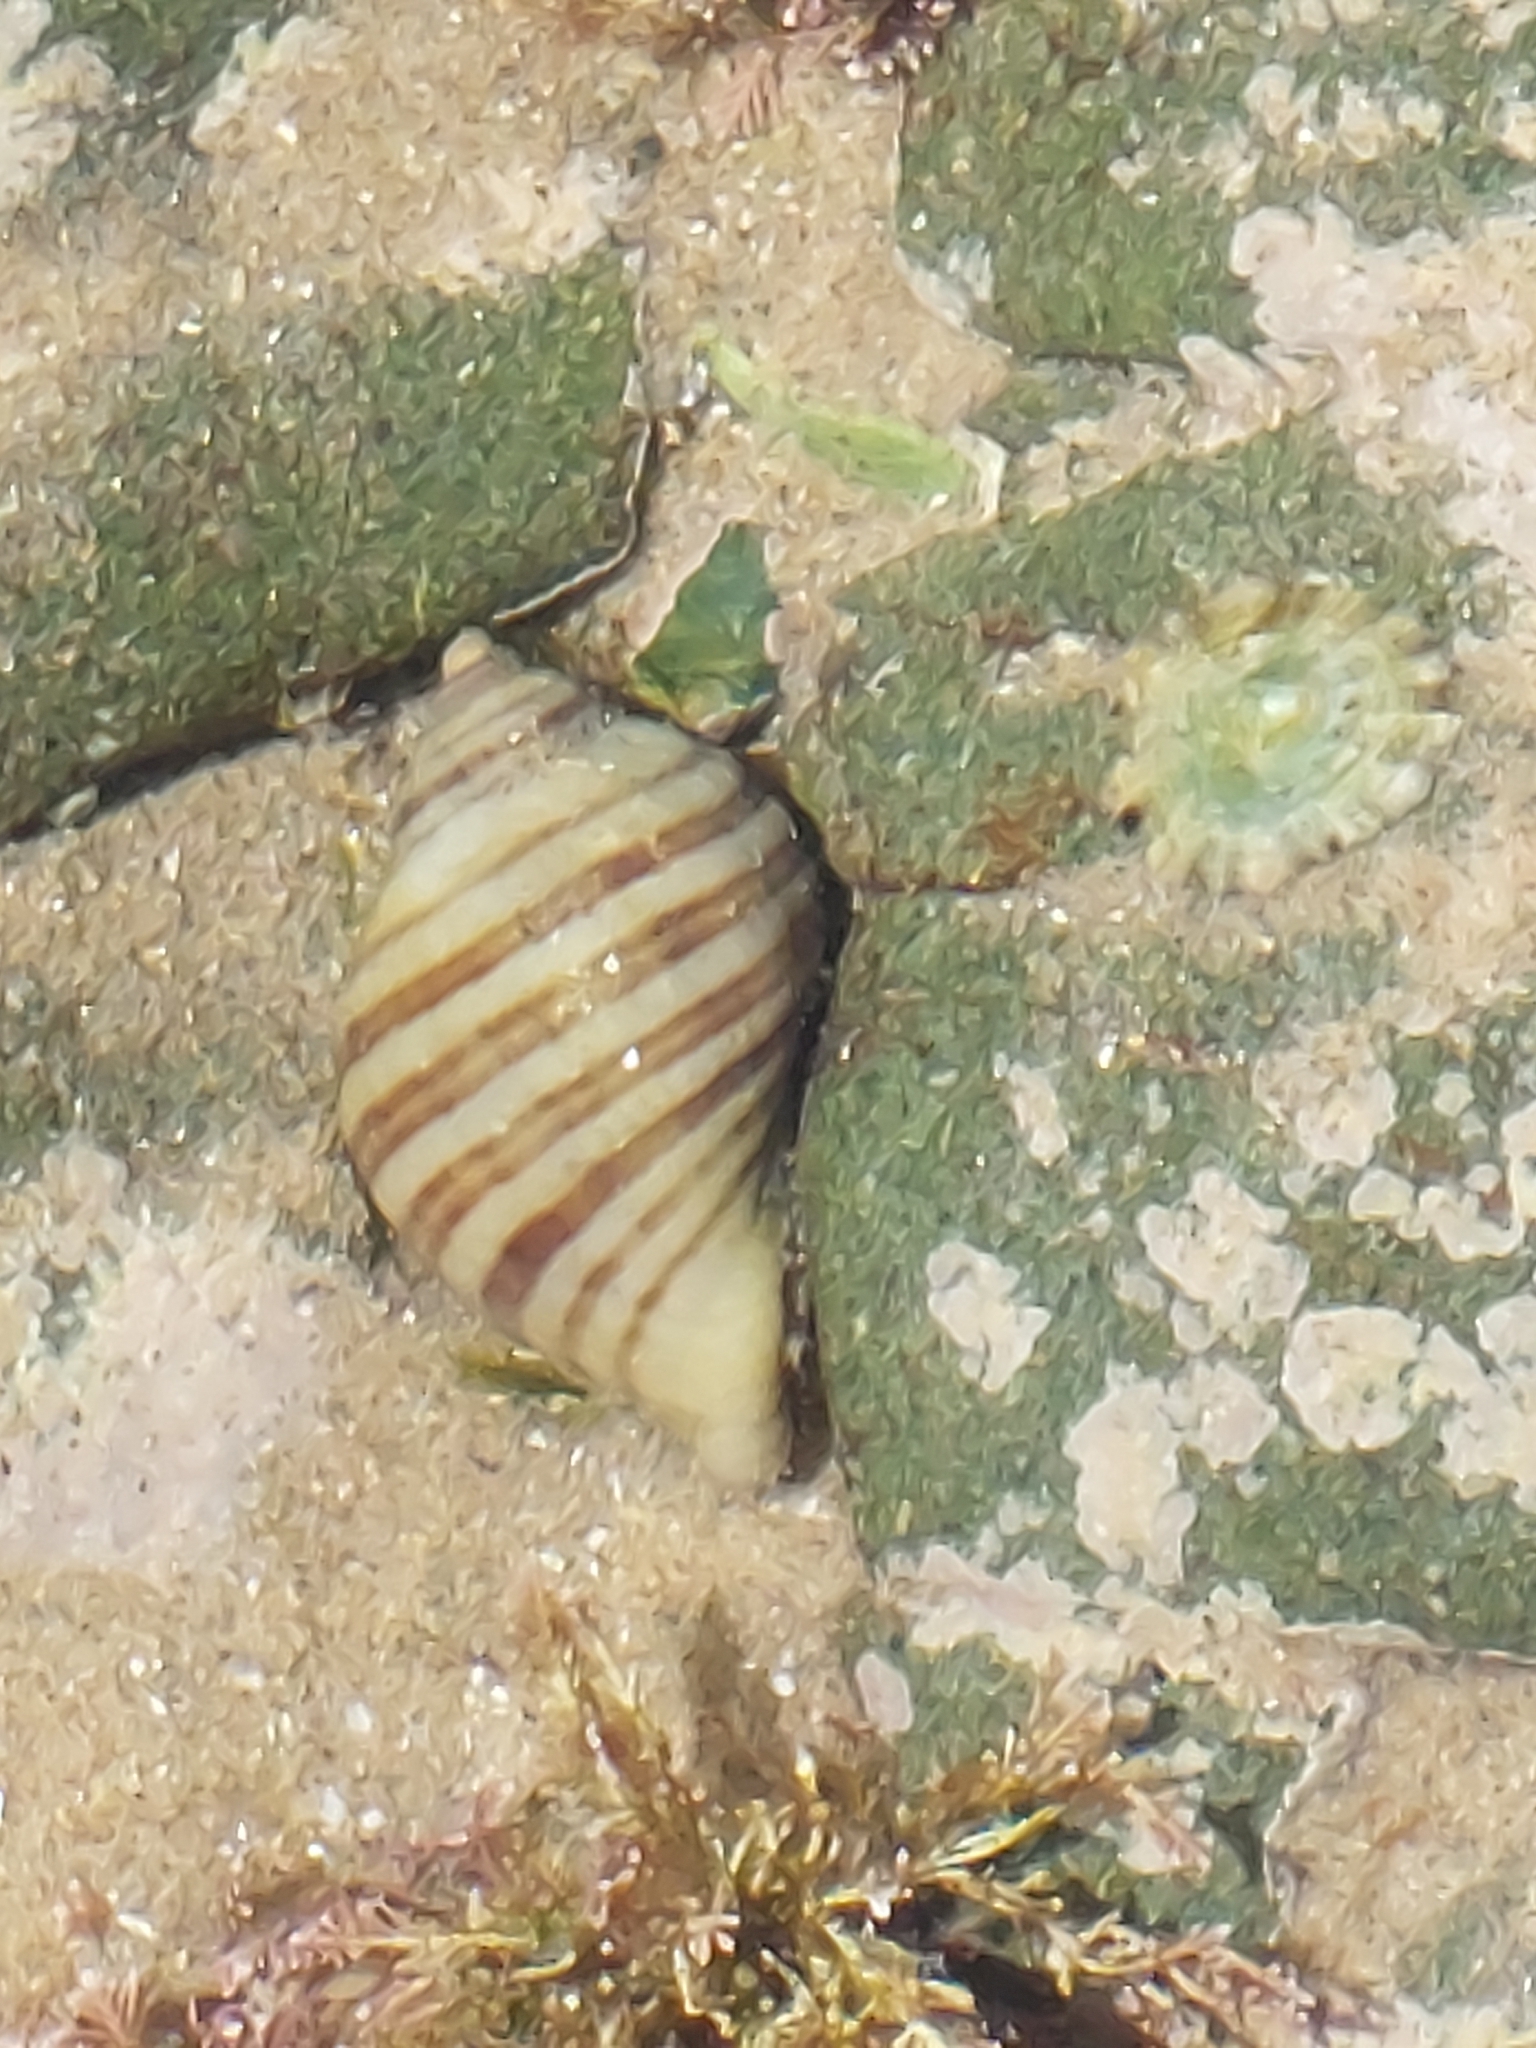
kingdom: Animalia
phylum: Mollusca
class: Gastropoda
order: Neogastropoda
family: Muricidae
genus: Nucella
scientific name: Nucella lapillus
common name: Dog whelk
